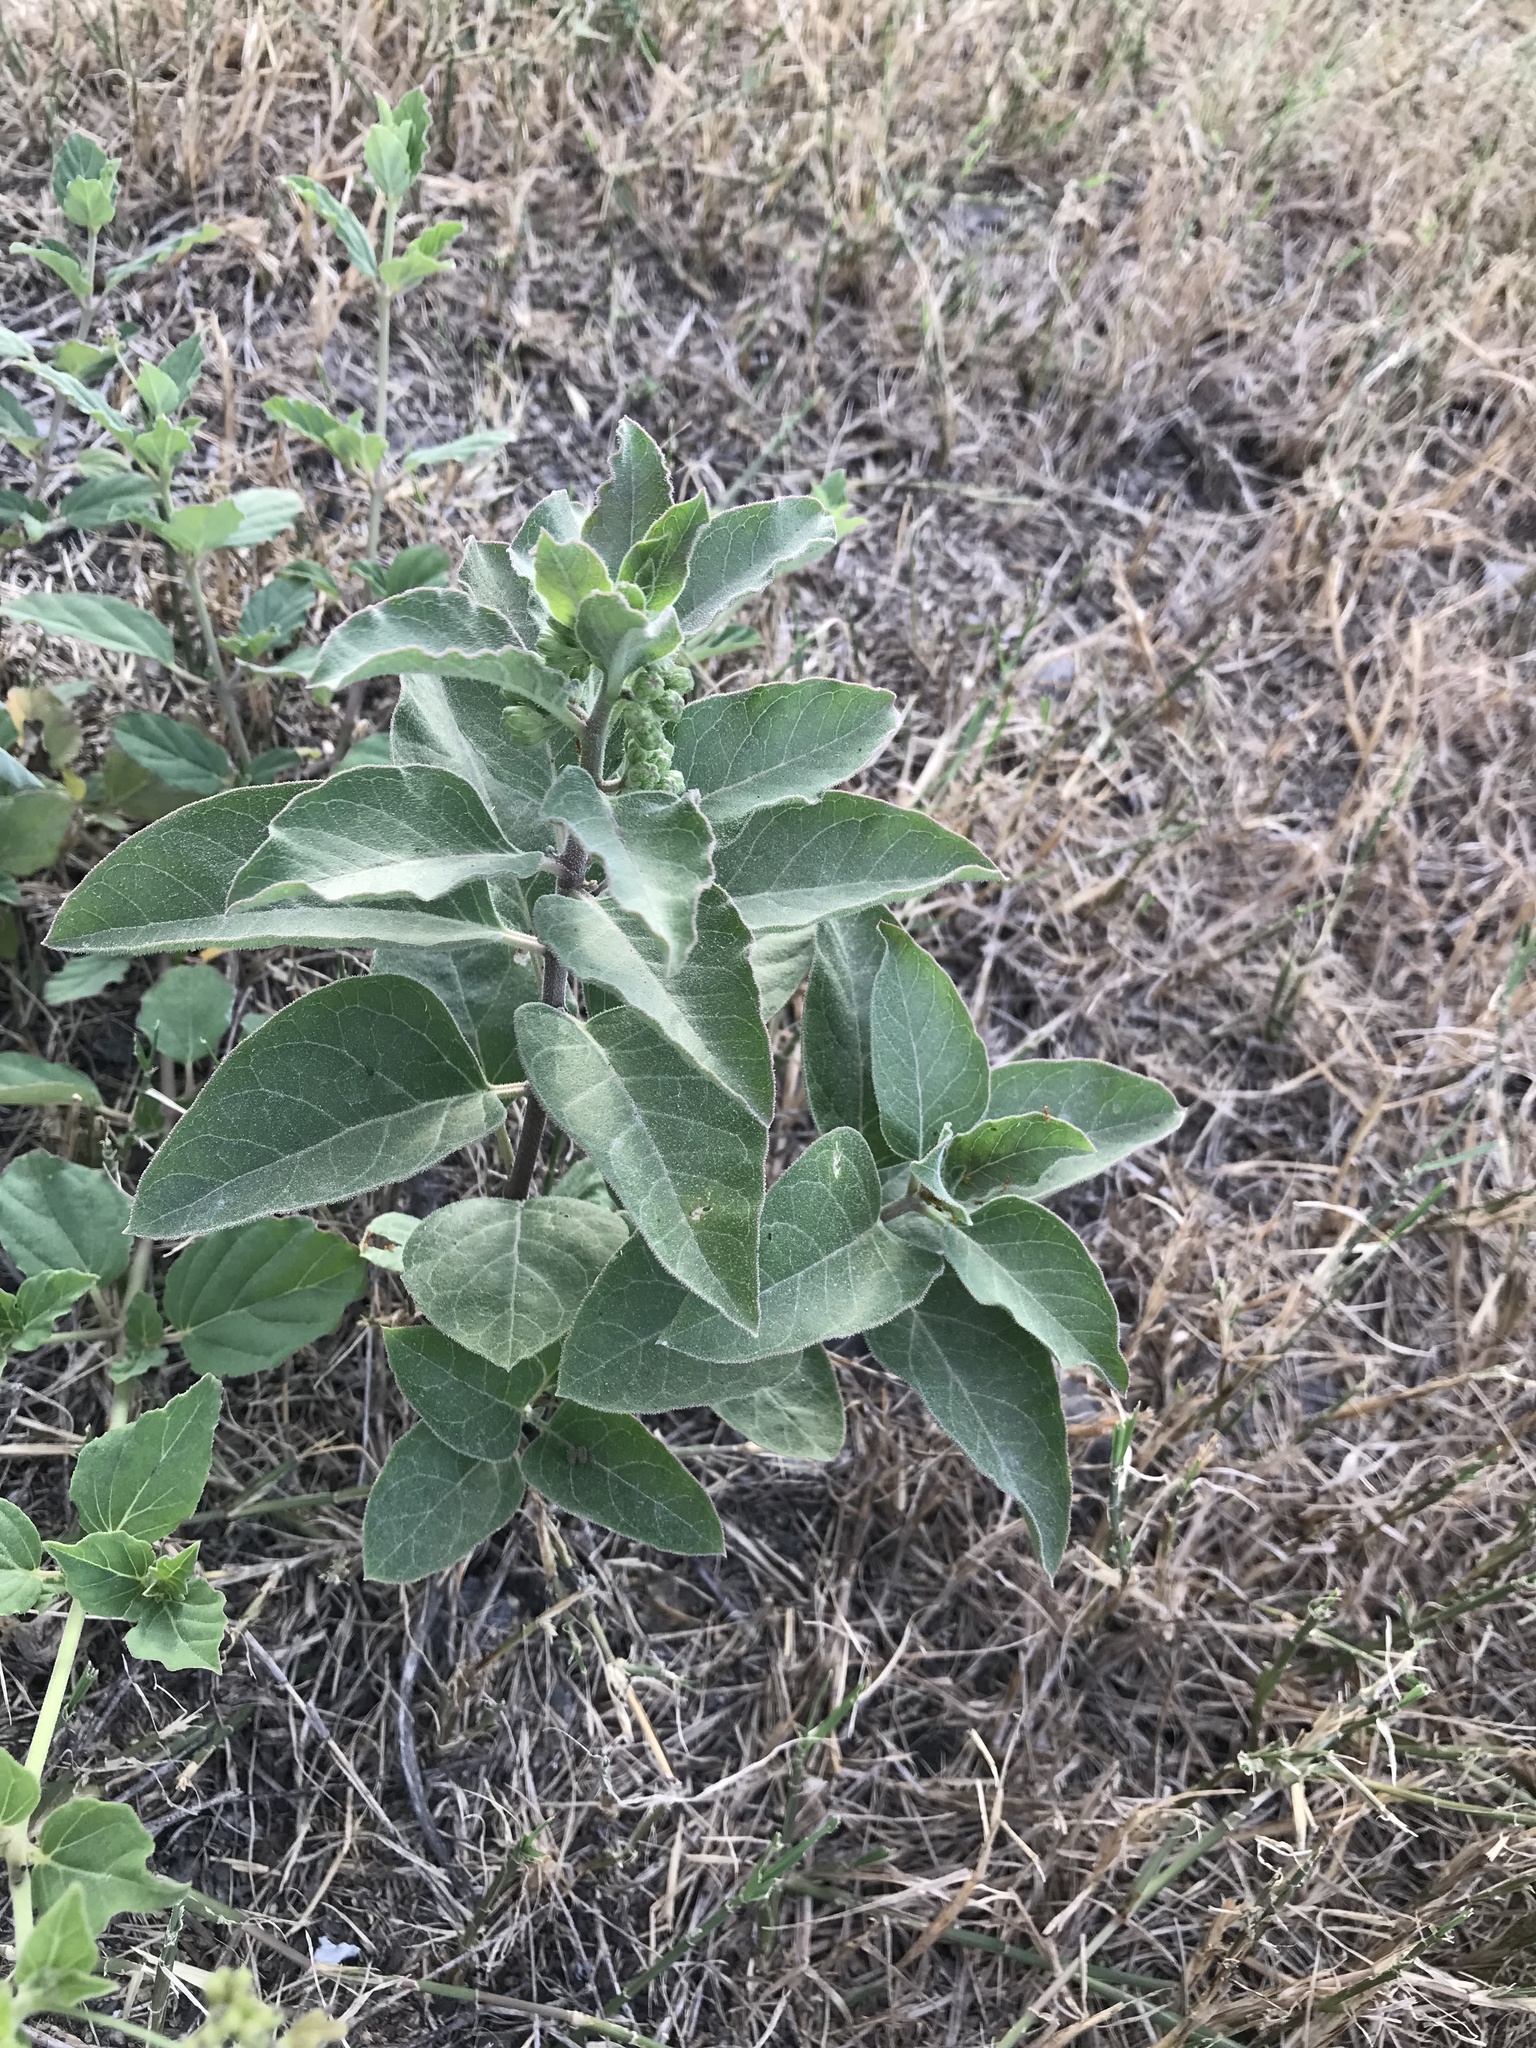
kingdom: Plantae
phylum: Tracheophyta
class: Magnoliopsida
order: Gentianales
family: Apocynaceae
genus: Asclepias
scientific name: Asclepias oenotheroides
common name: Zizotes milkweed
